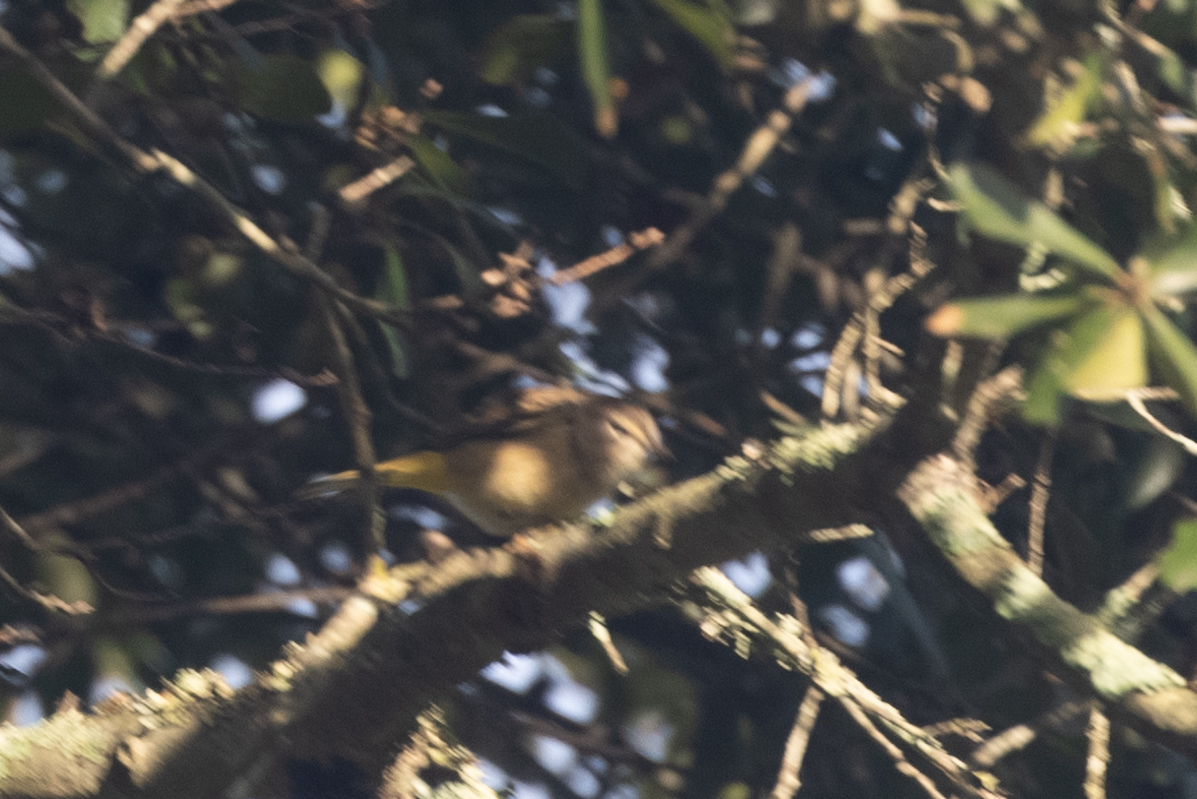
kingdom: Animalia
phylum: Chordata
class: Aves
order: Passeriformes
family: Parulidae
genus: Setophaga
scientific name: Setophaga palmarum
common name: Palm warbler
